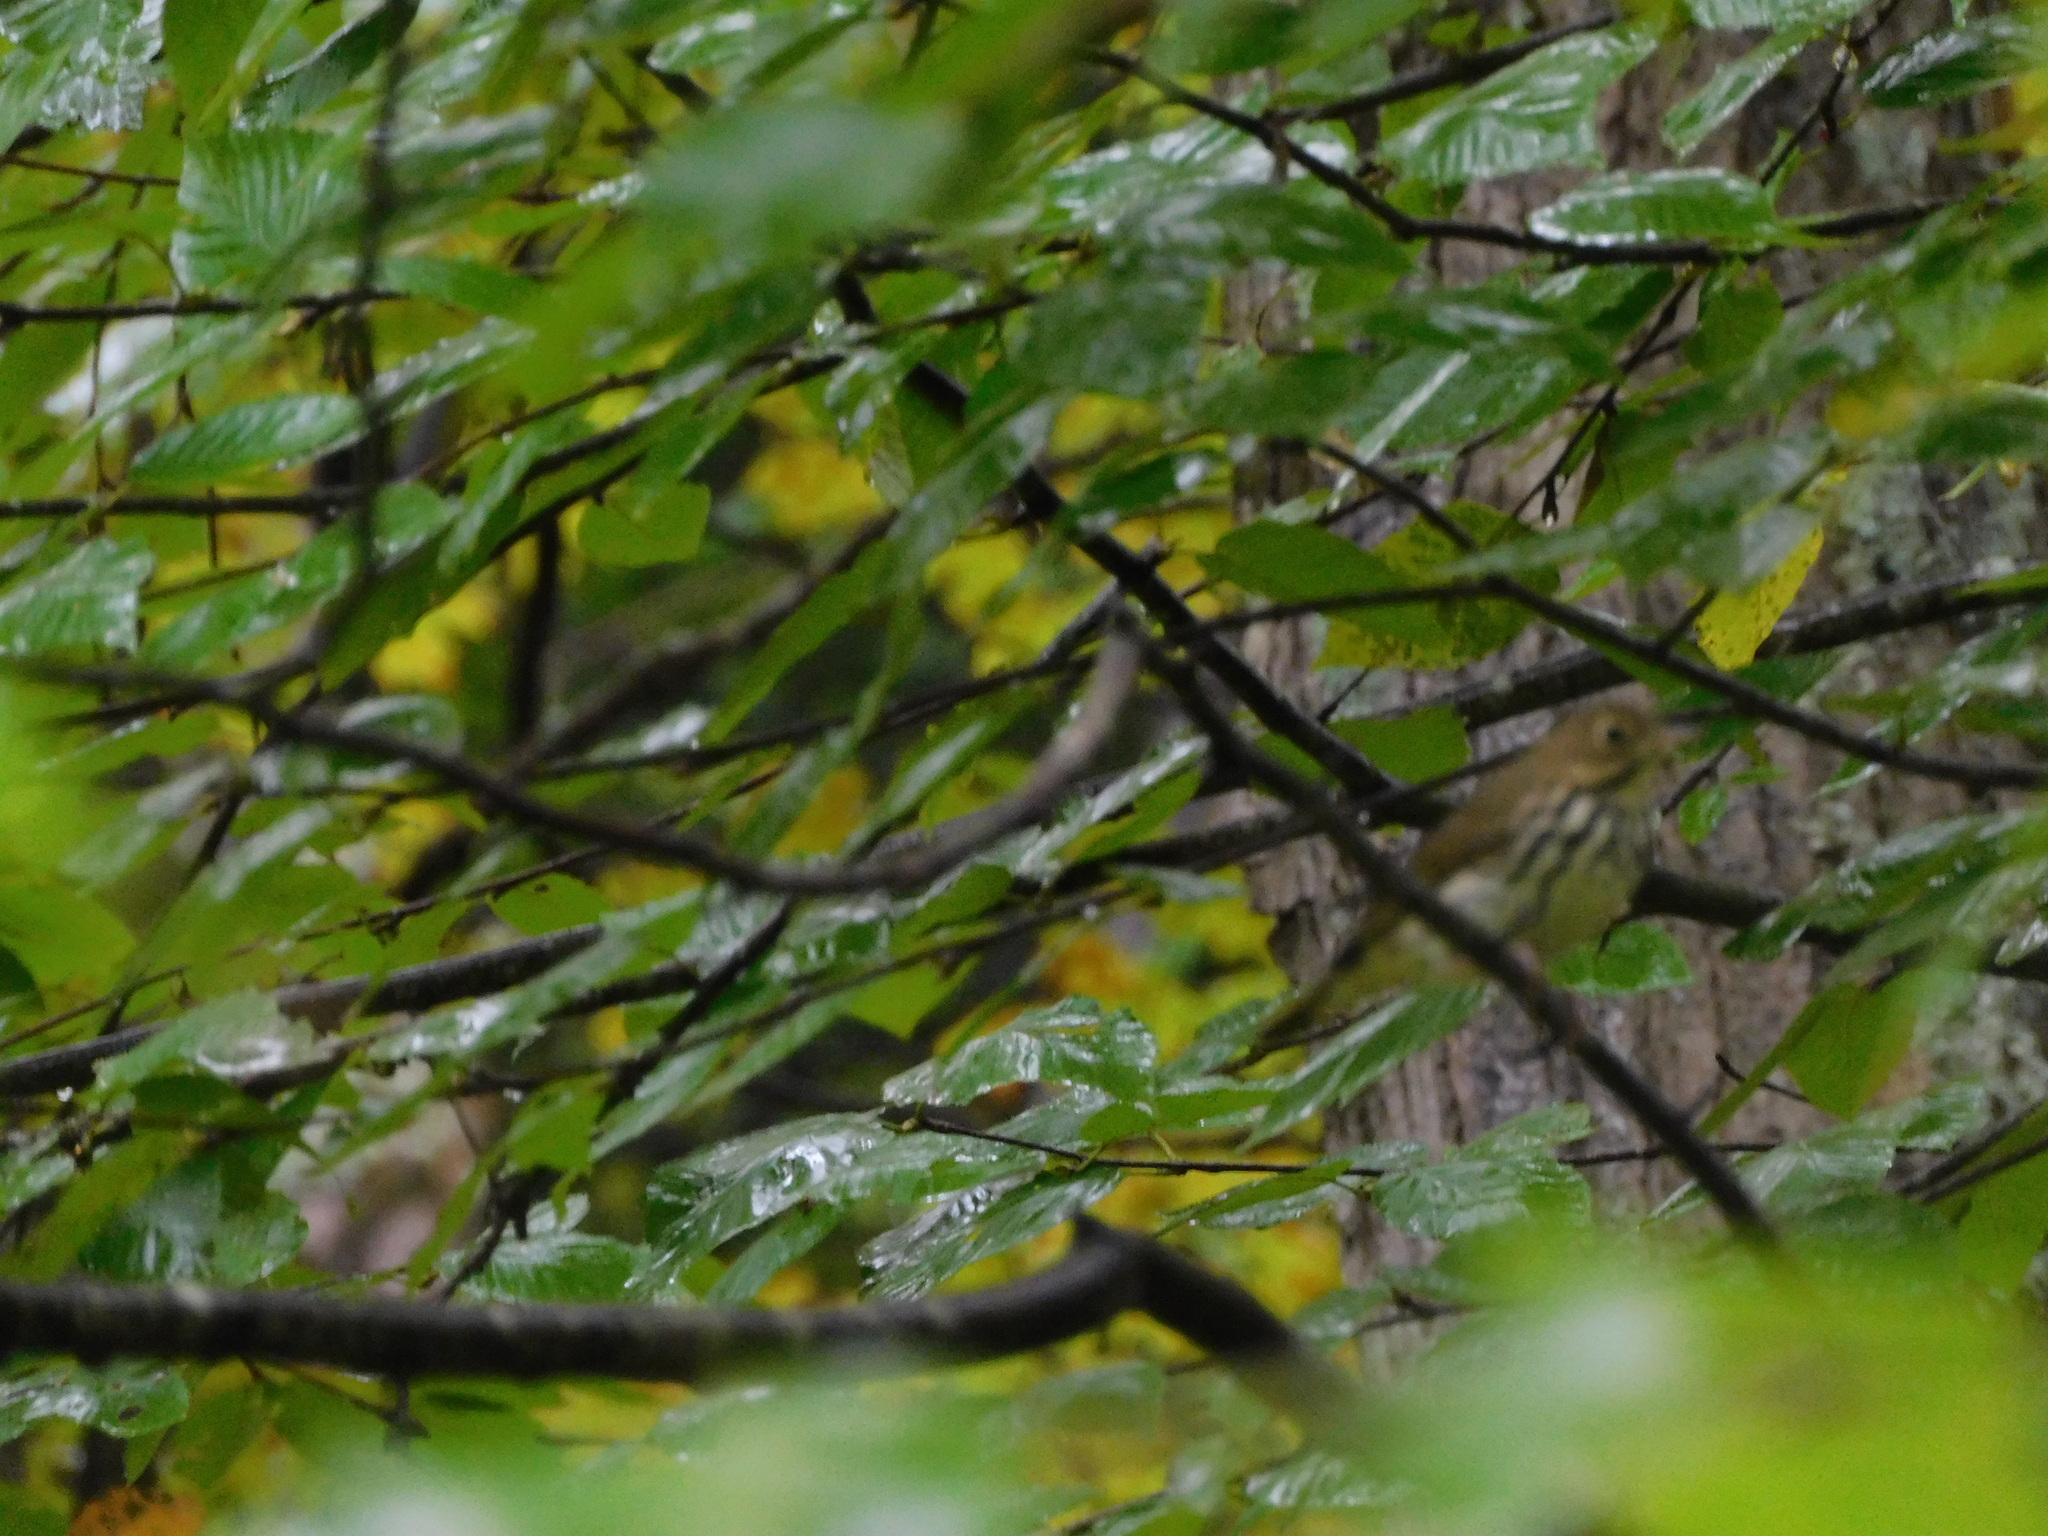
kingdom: Animalia
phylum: Chordata
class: Aves
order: Passeriformes
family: Parulidae
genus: Seiurus
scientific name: Seiurus aurocapilla
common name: Ovenbird
